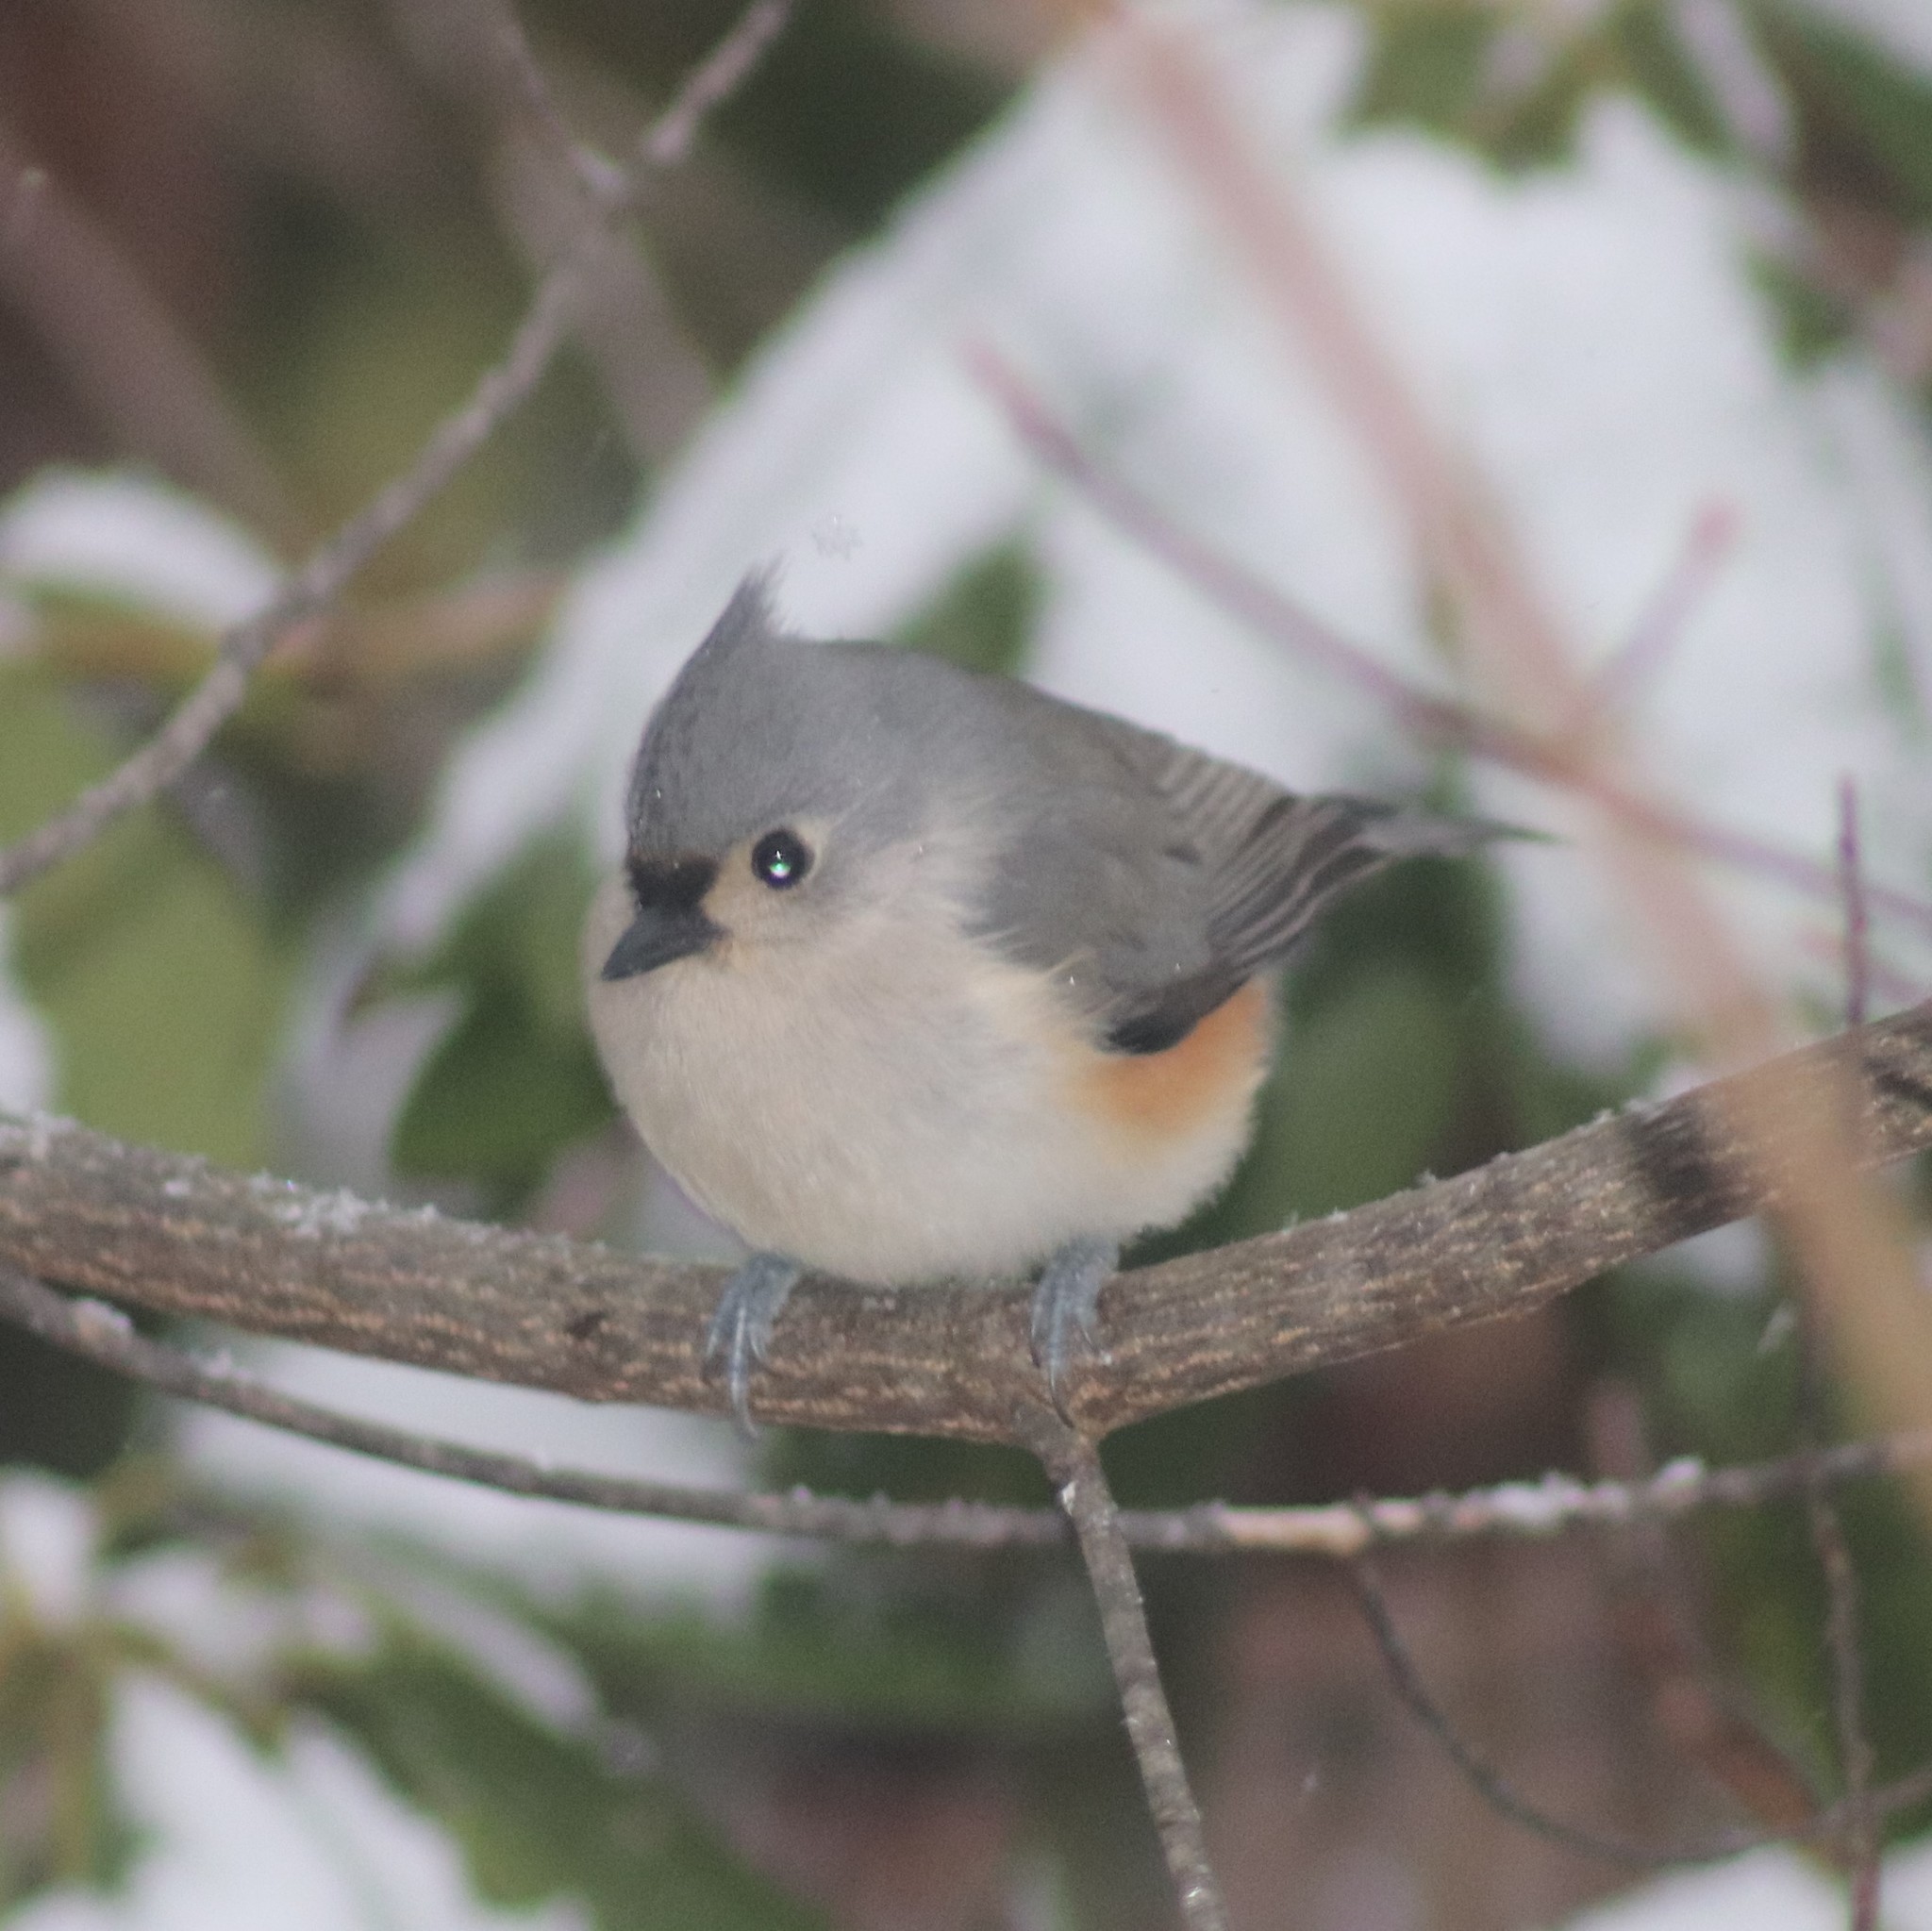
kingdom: Animalia
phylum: Chordata
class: Aves
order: Passeriformes
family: Paridae
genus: Baeolophus
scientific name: Baeolophus bicolor
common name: Tufted titmouse
